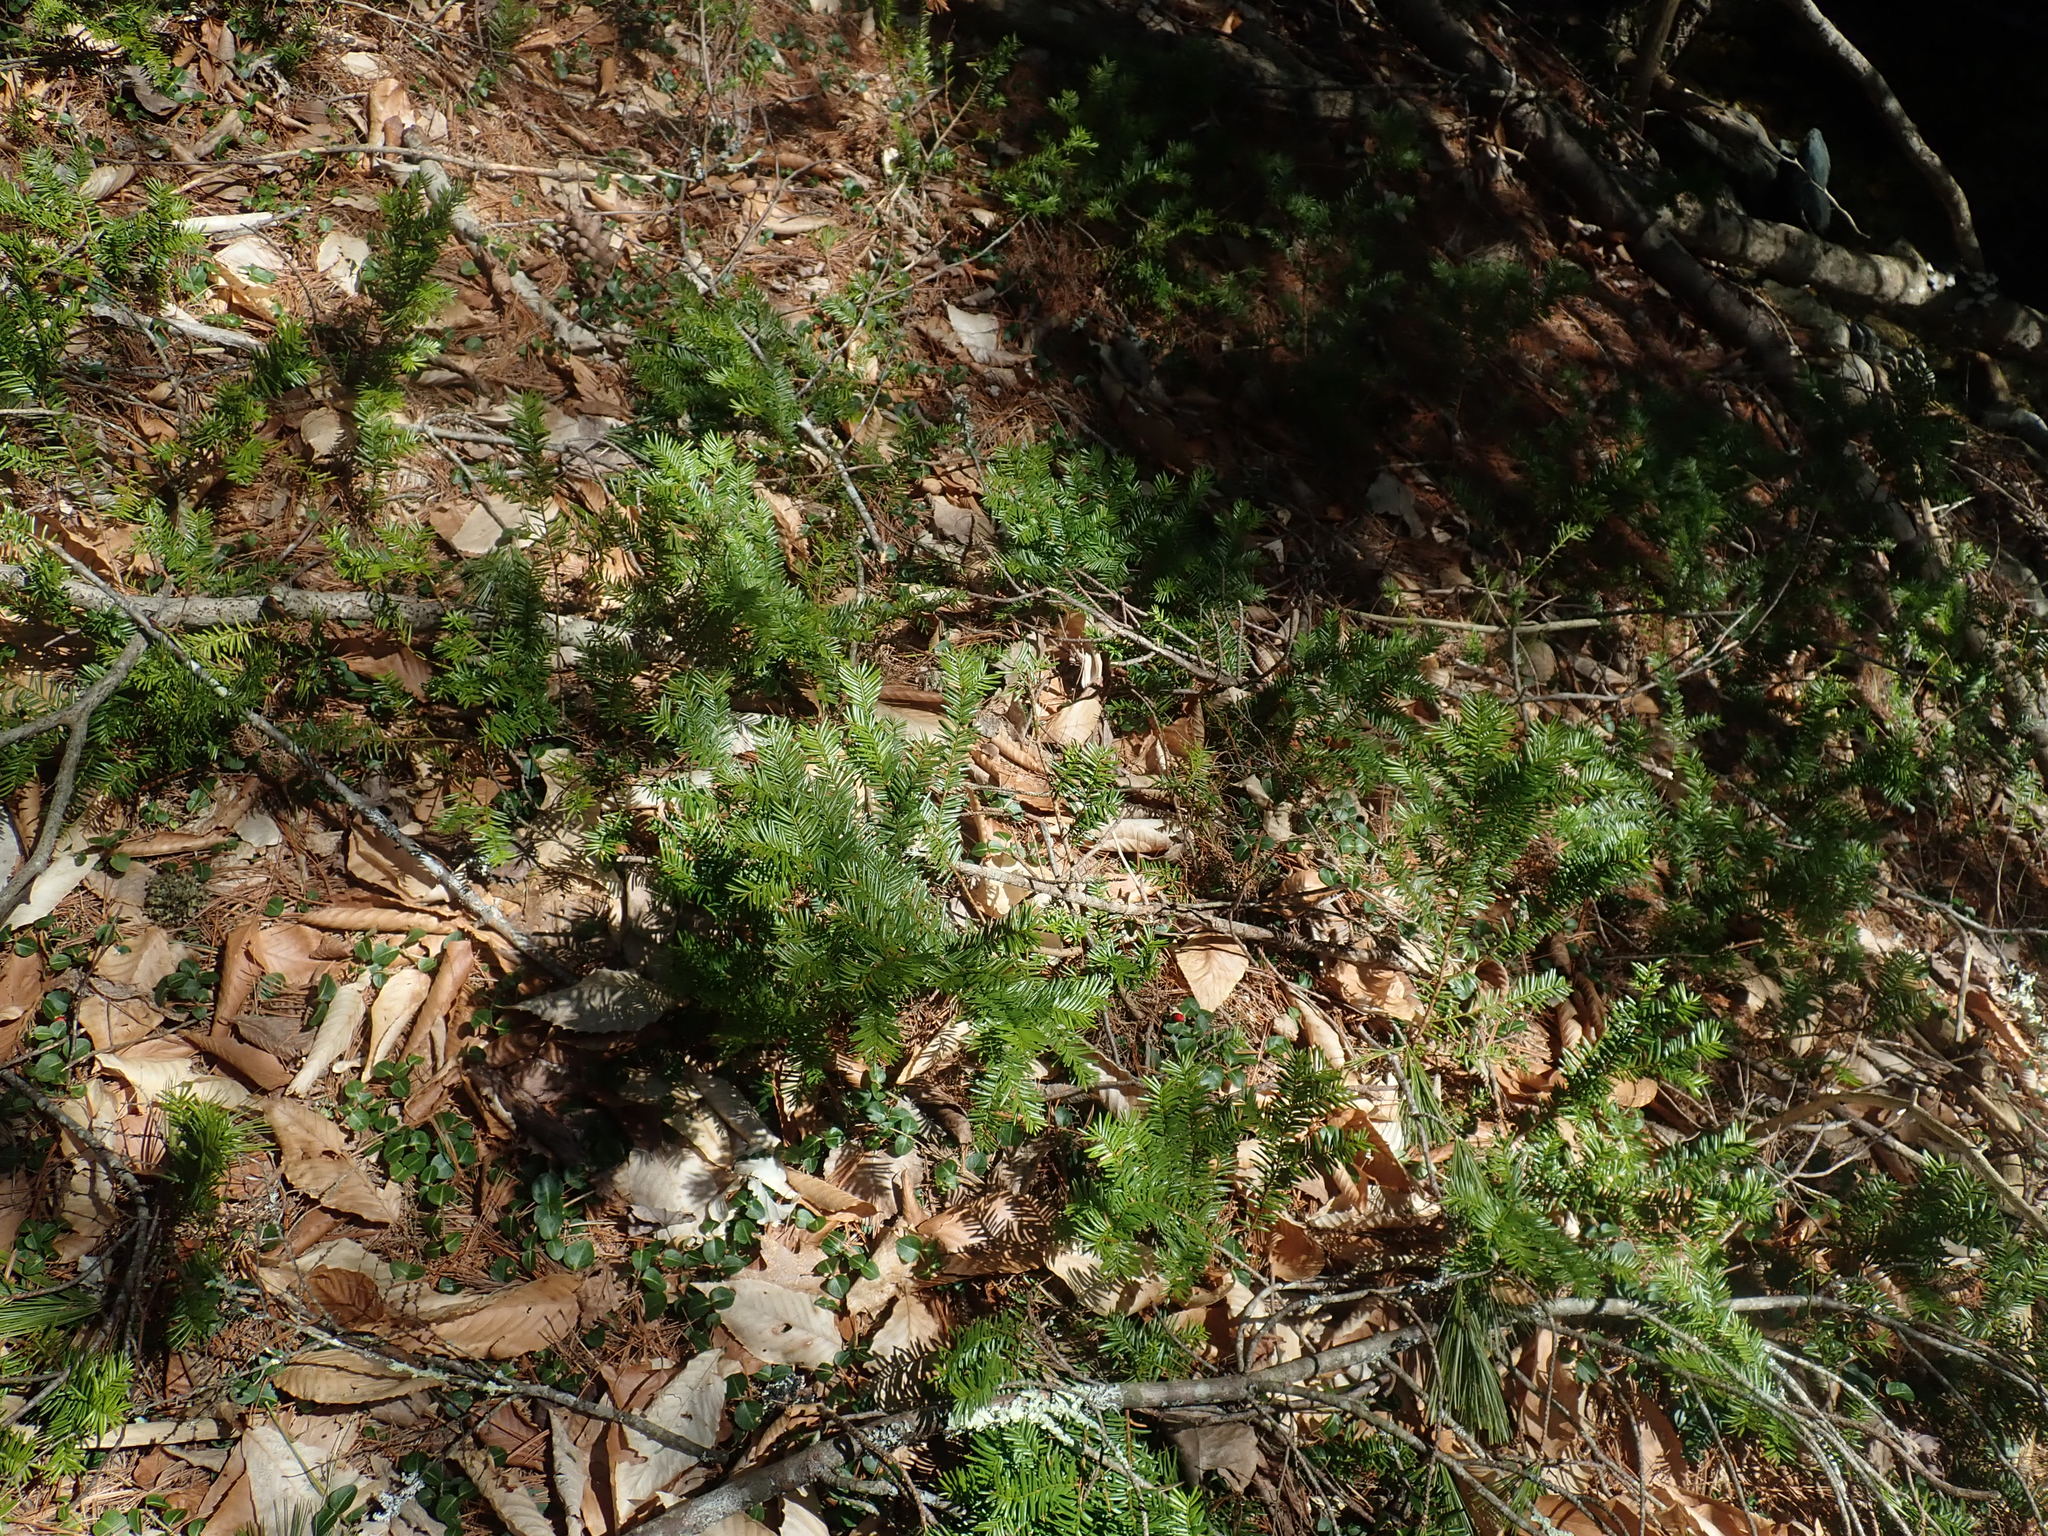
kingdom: Plantae
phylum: Tracheophyta
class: Pinopsida
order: Pinales
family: Taxaceae
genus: Taxus
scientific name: Taxus canadensis
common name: American yew
